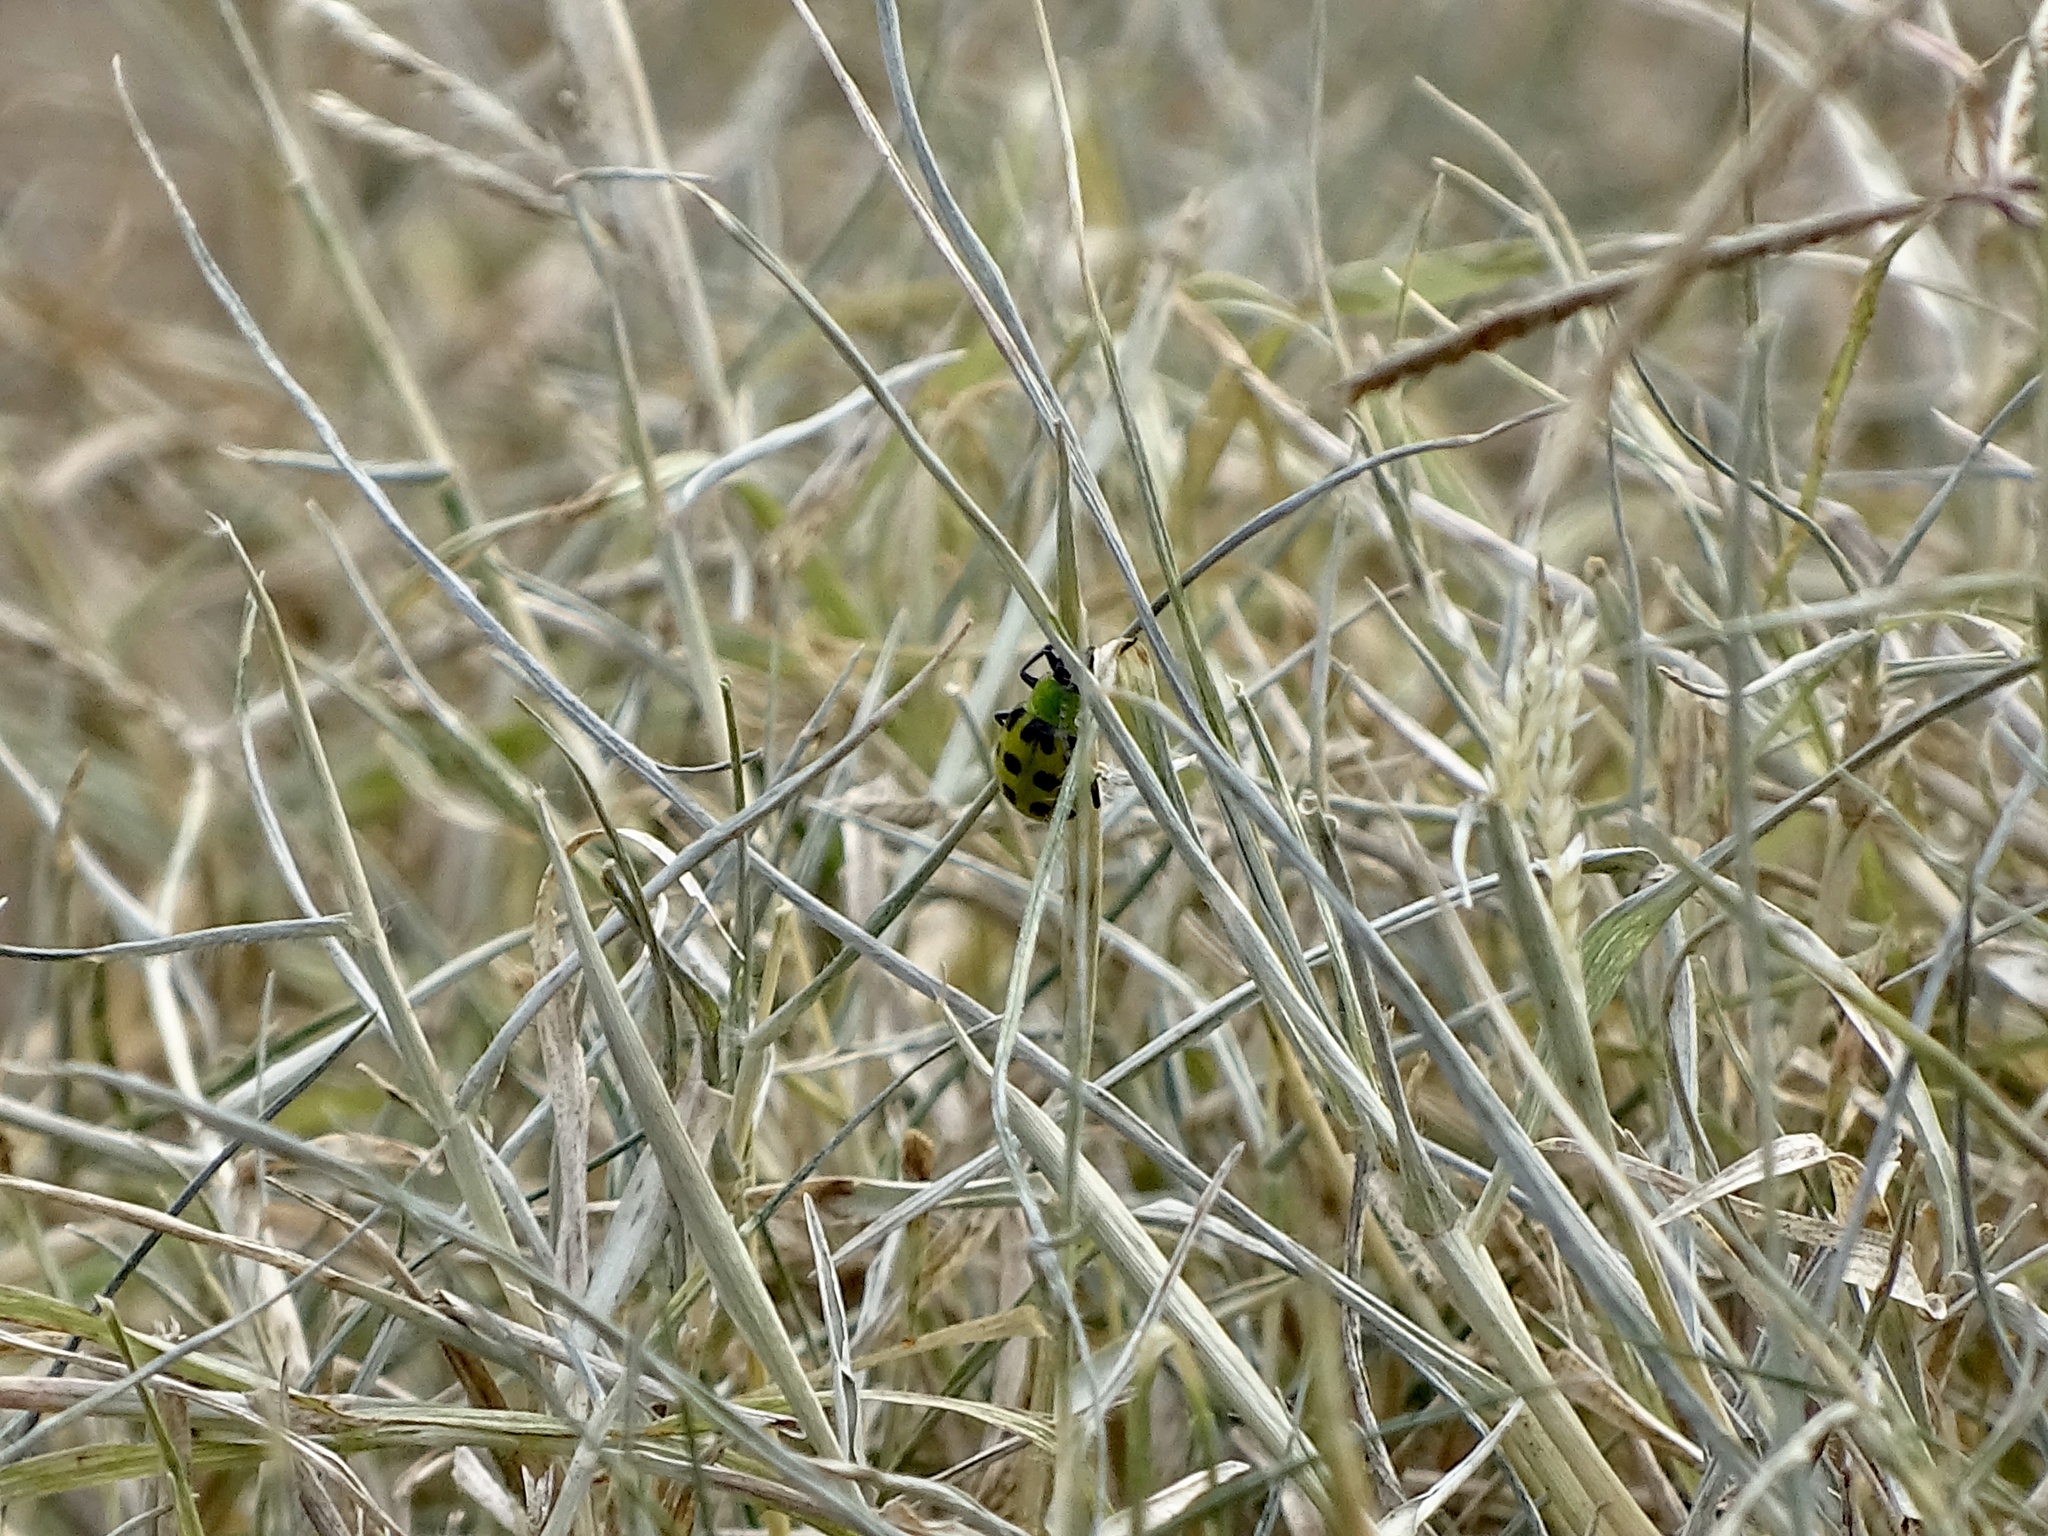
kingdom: Animalia
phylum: Arthropoda
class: Insecta
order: Coleoptera
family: Chrysomelidae
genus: Diabrotica
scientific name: Diabrotica undecimpunctata
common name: Spotted cucumber beetle
